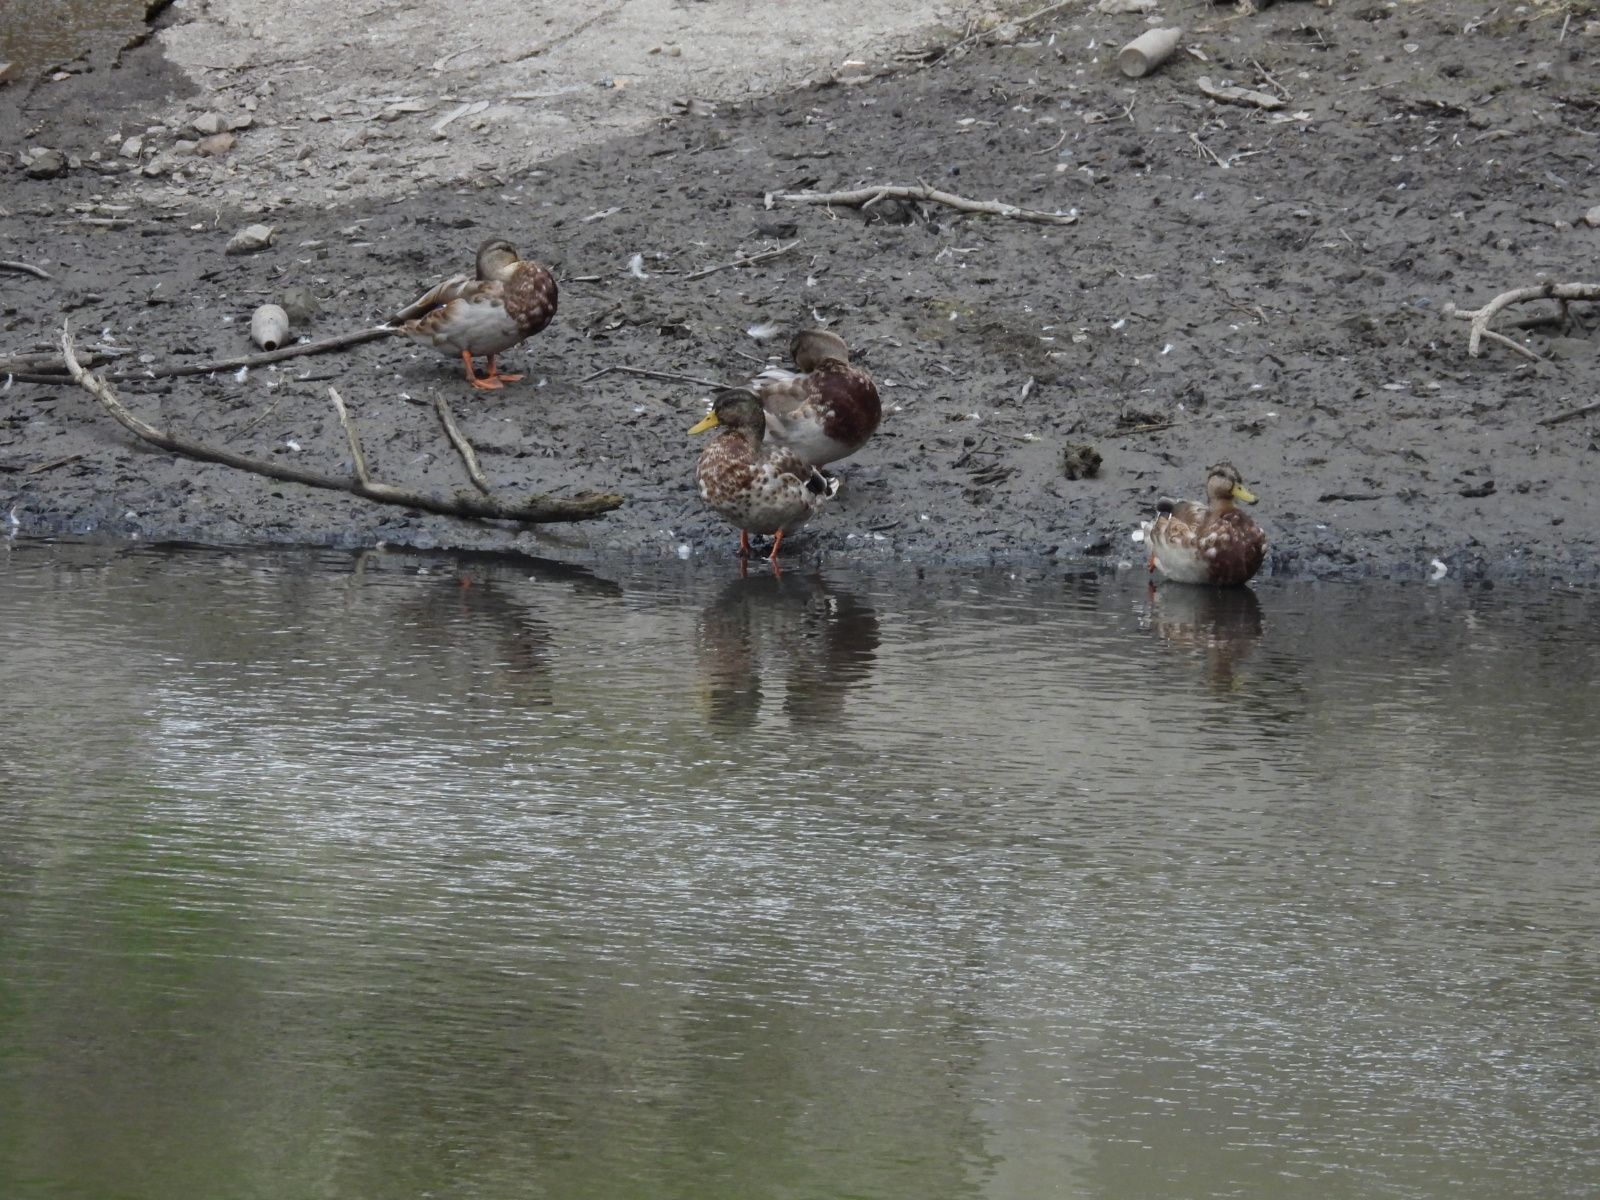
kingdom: Animalia
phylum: Chordata
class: Aves
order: Anseriformes
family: Anatidae
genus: Anas
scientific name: Anas platyrhynchos
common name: Mallard
